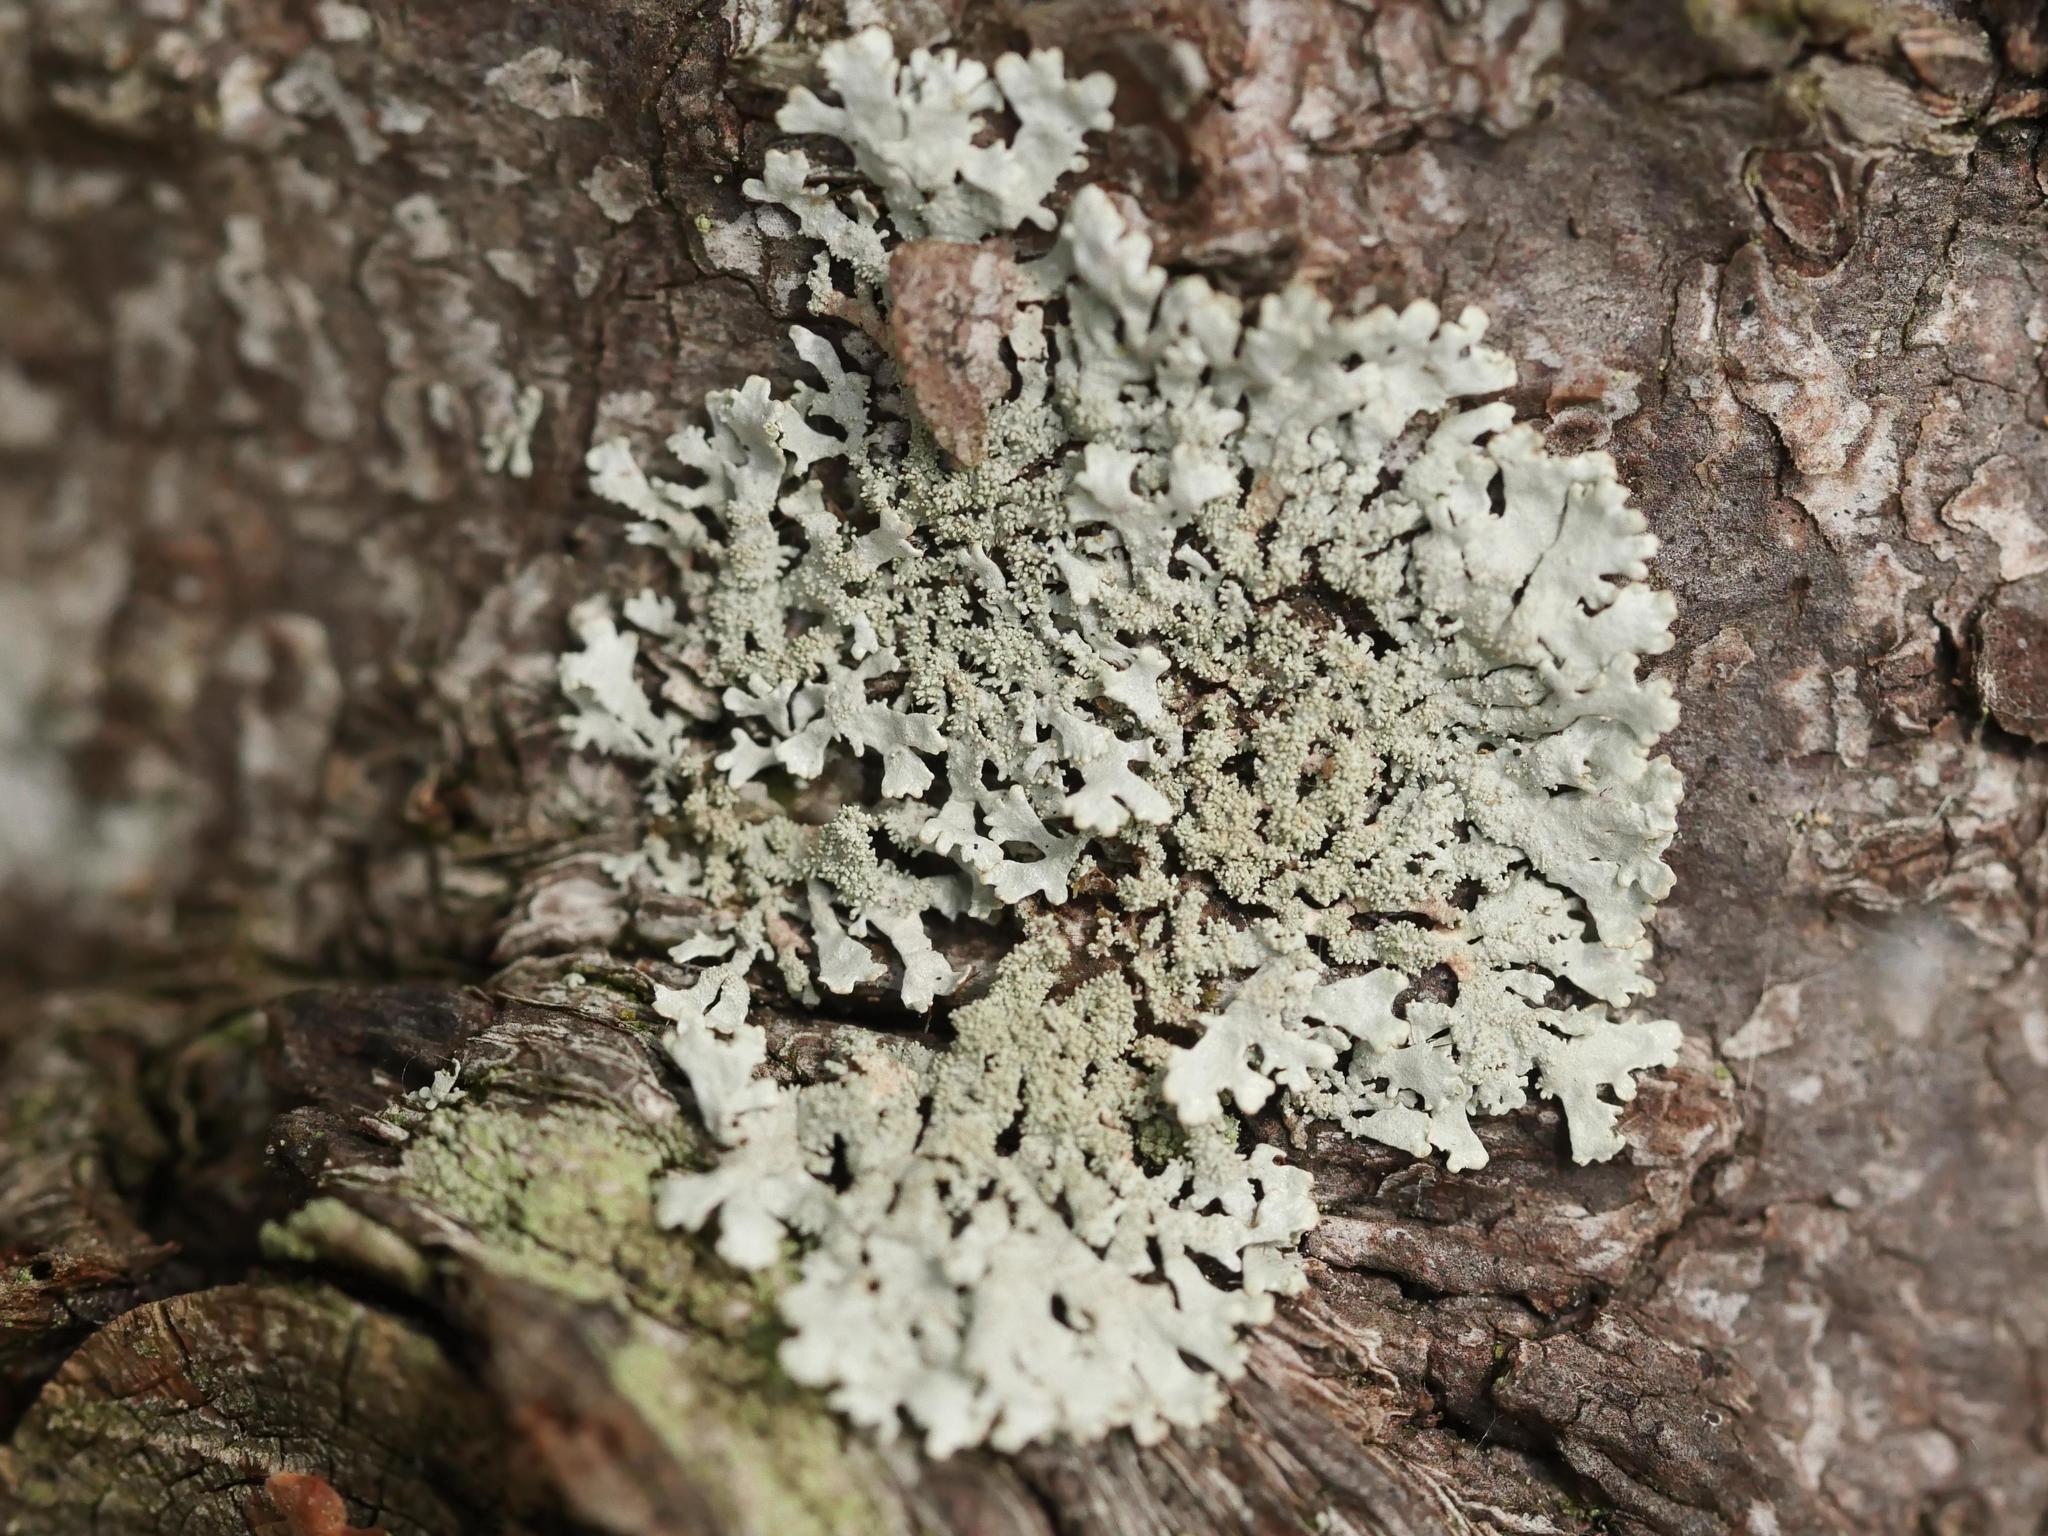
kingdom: Fungi
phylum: Ascomycota
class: Lecanoromycetes
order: Lecanorales
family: Parmeliaceae
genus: Imshaugia
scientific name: Imshaugia aleurites
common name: Salted starburst lichen
